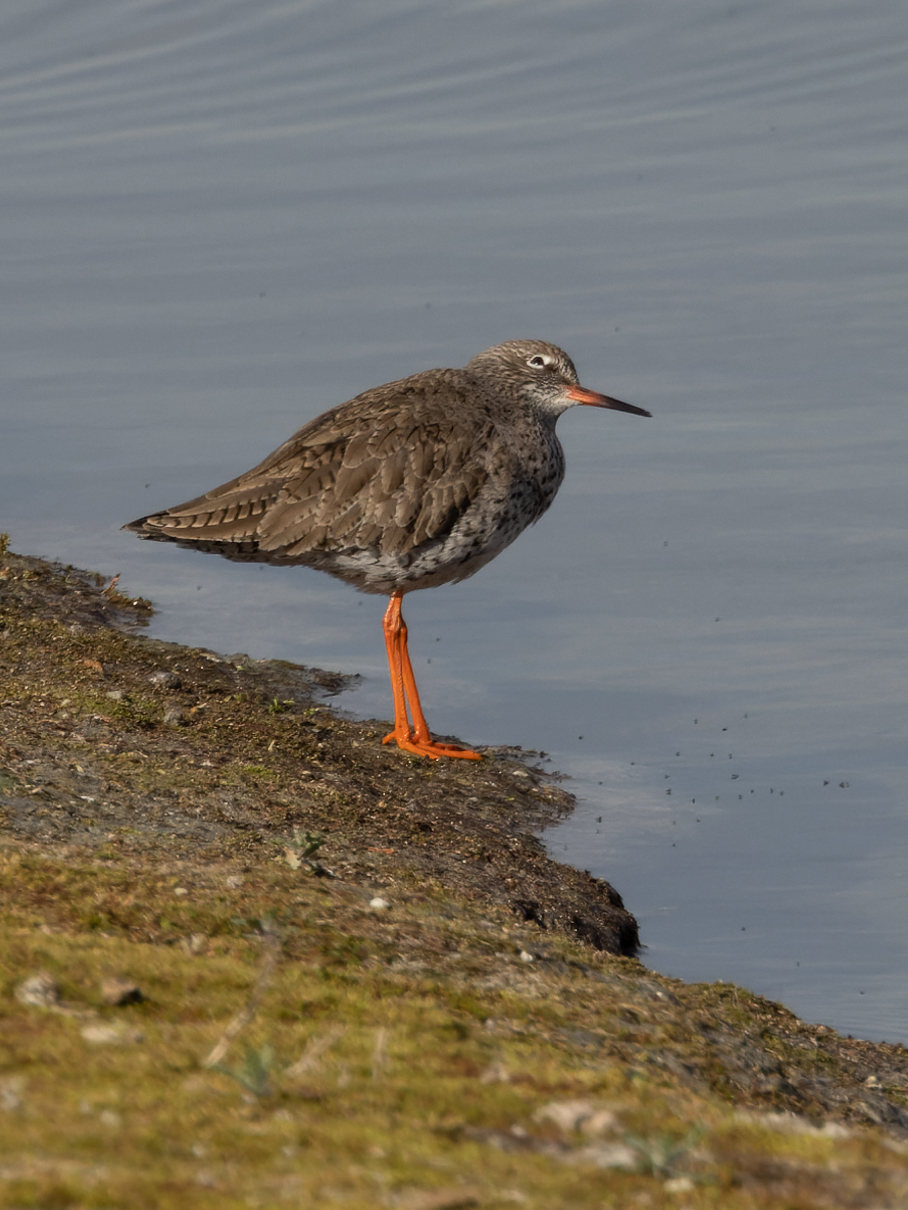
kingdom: Animalia
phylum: Chordata
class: Aves
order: Charadriiformes
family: Scolopacidae
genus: Tringa
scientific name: Tringa totanus
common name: Common redshank
